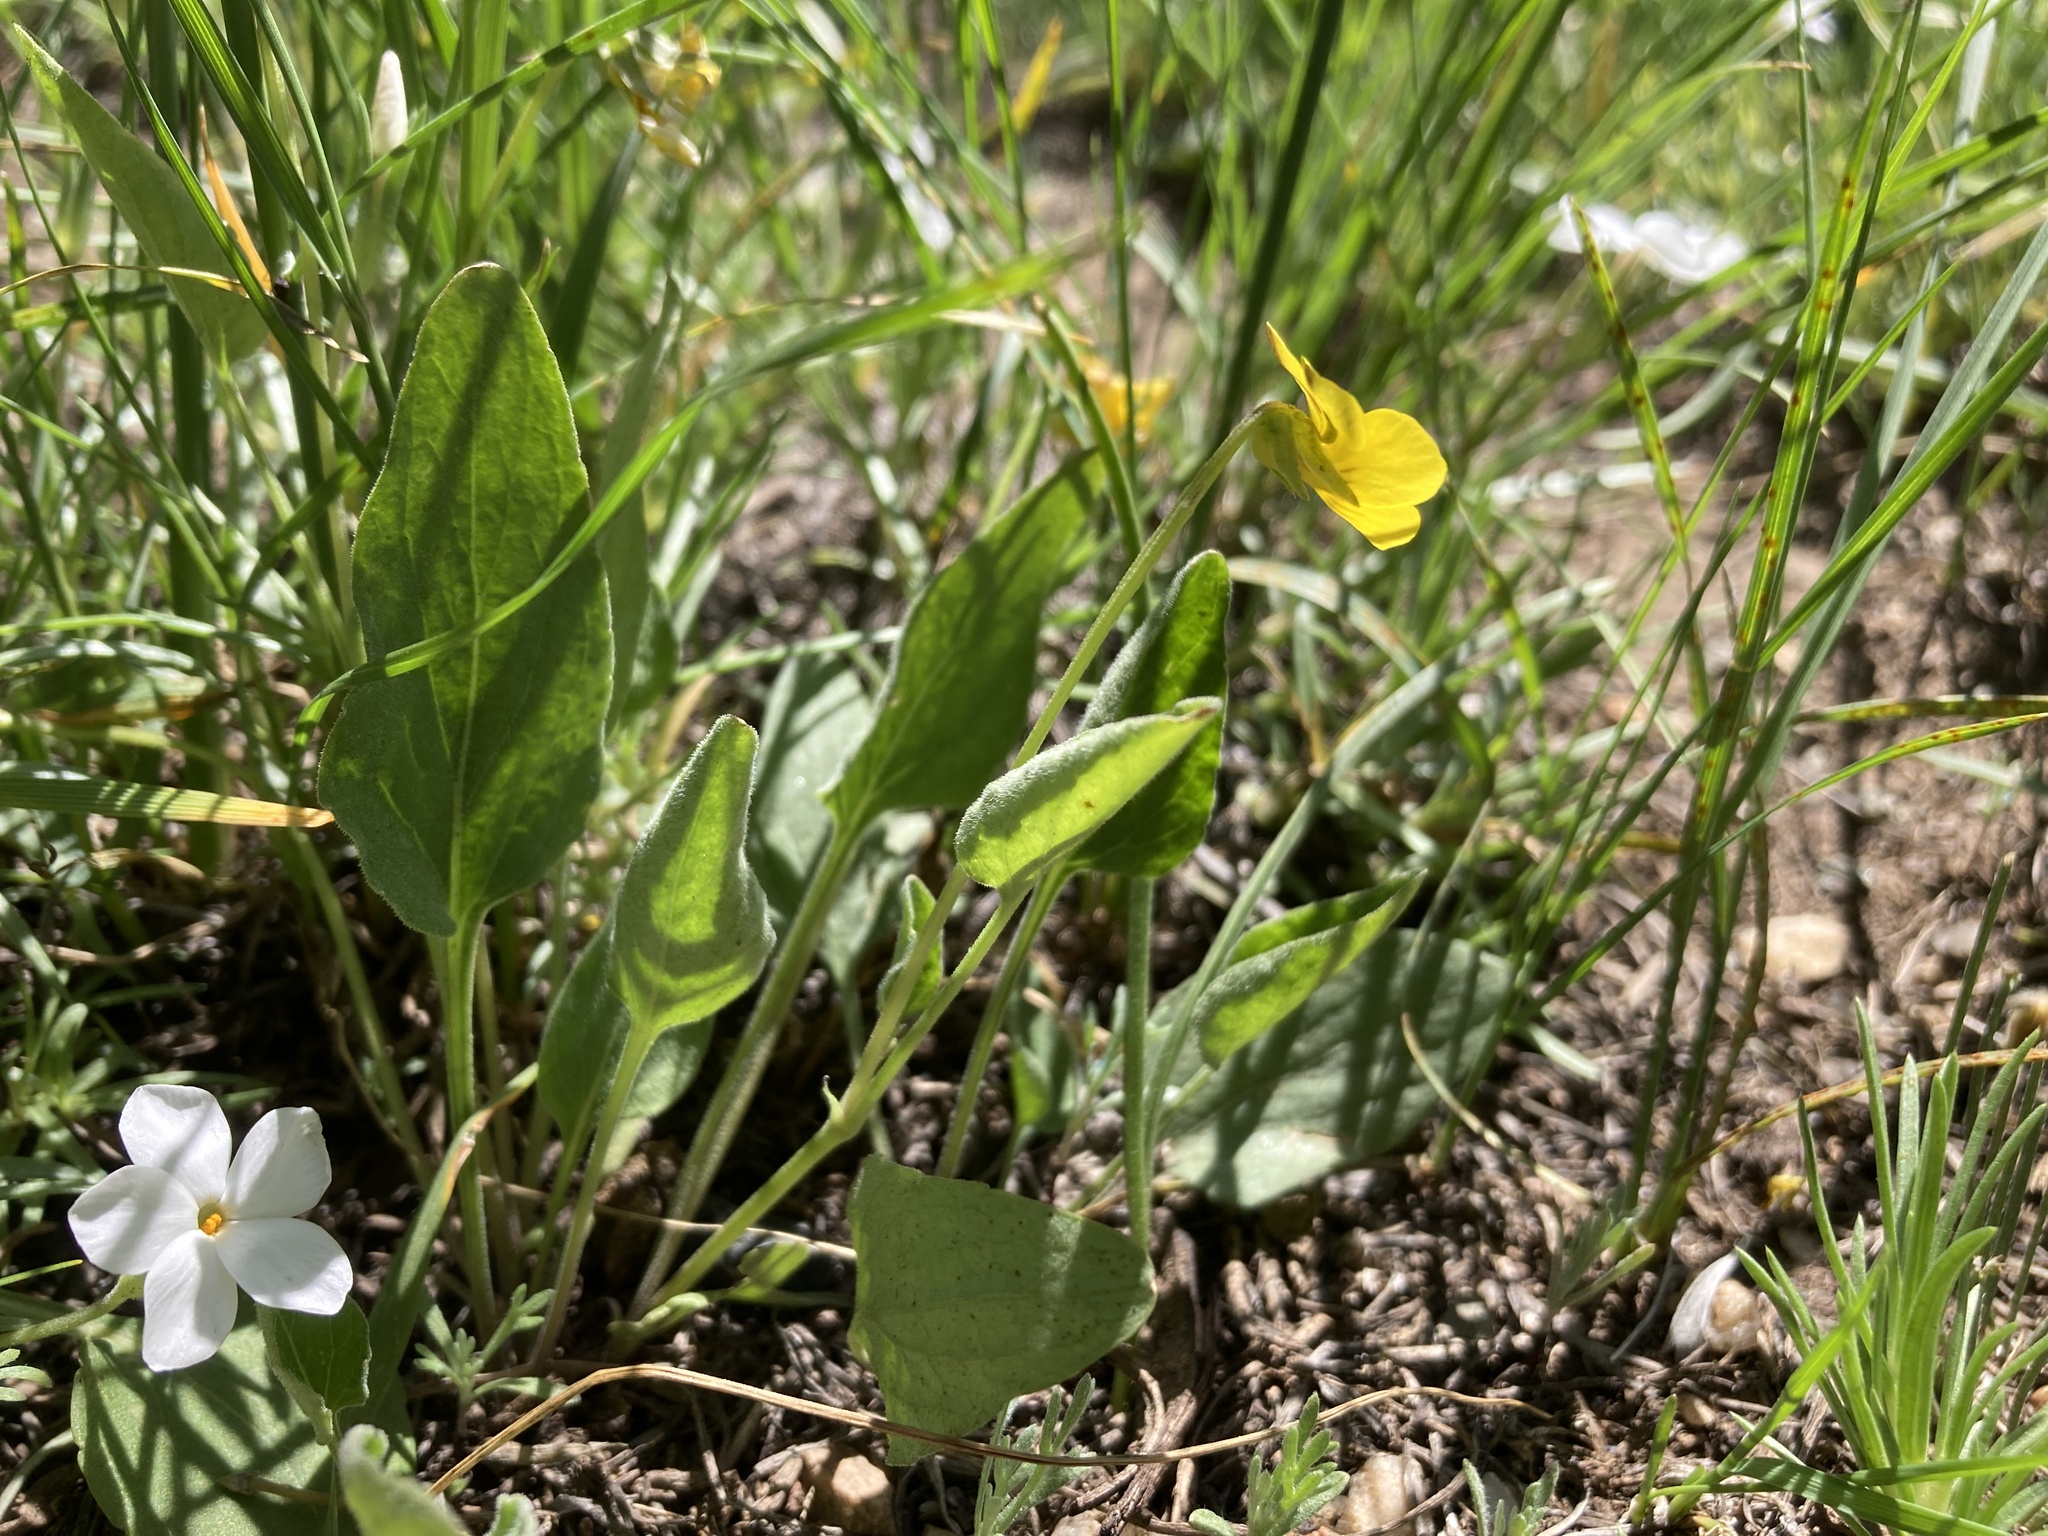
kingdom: Plantae
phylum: Tracheophyta
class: Magnoliopsida
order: Malpighiales
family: Violaceae
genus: Viola
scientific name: Viola nuttallii
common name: Yellow prairie violet
